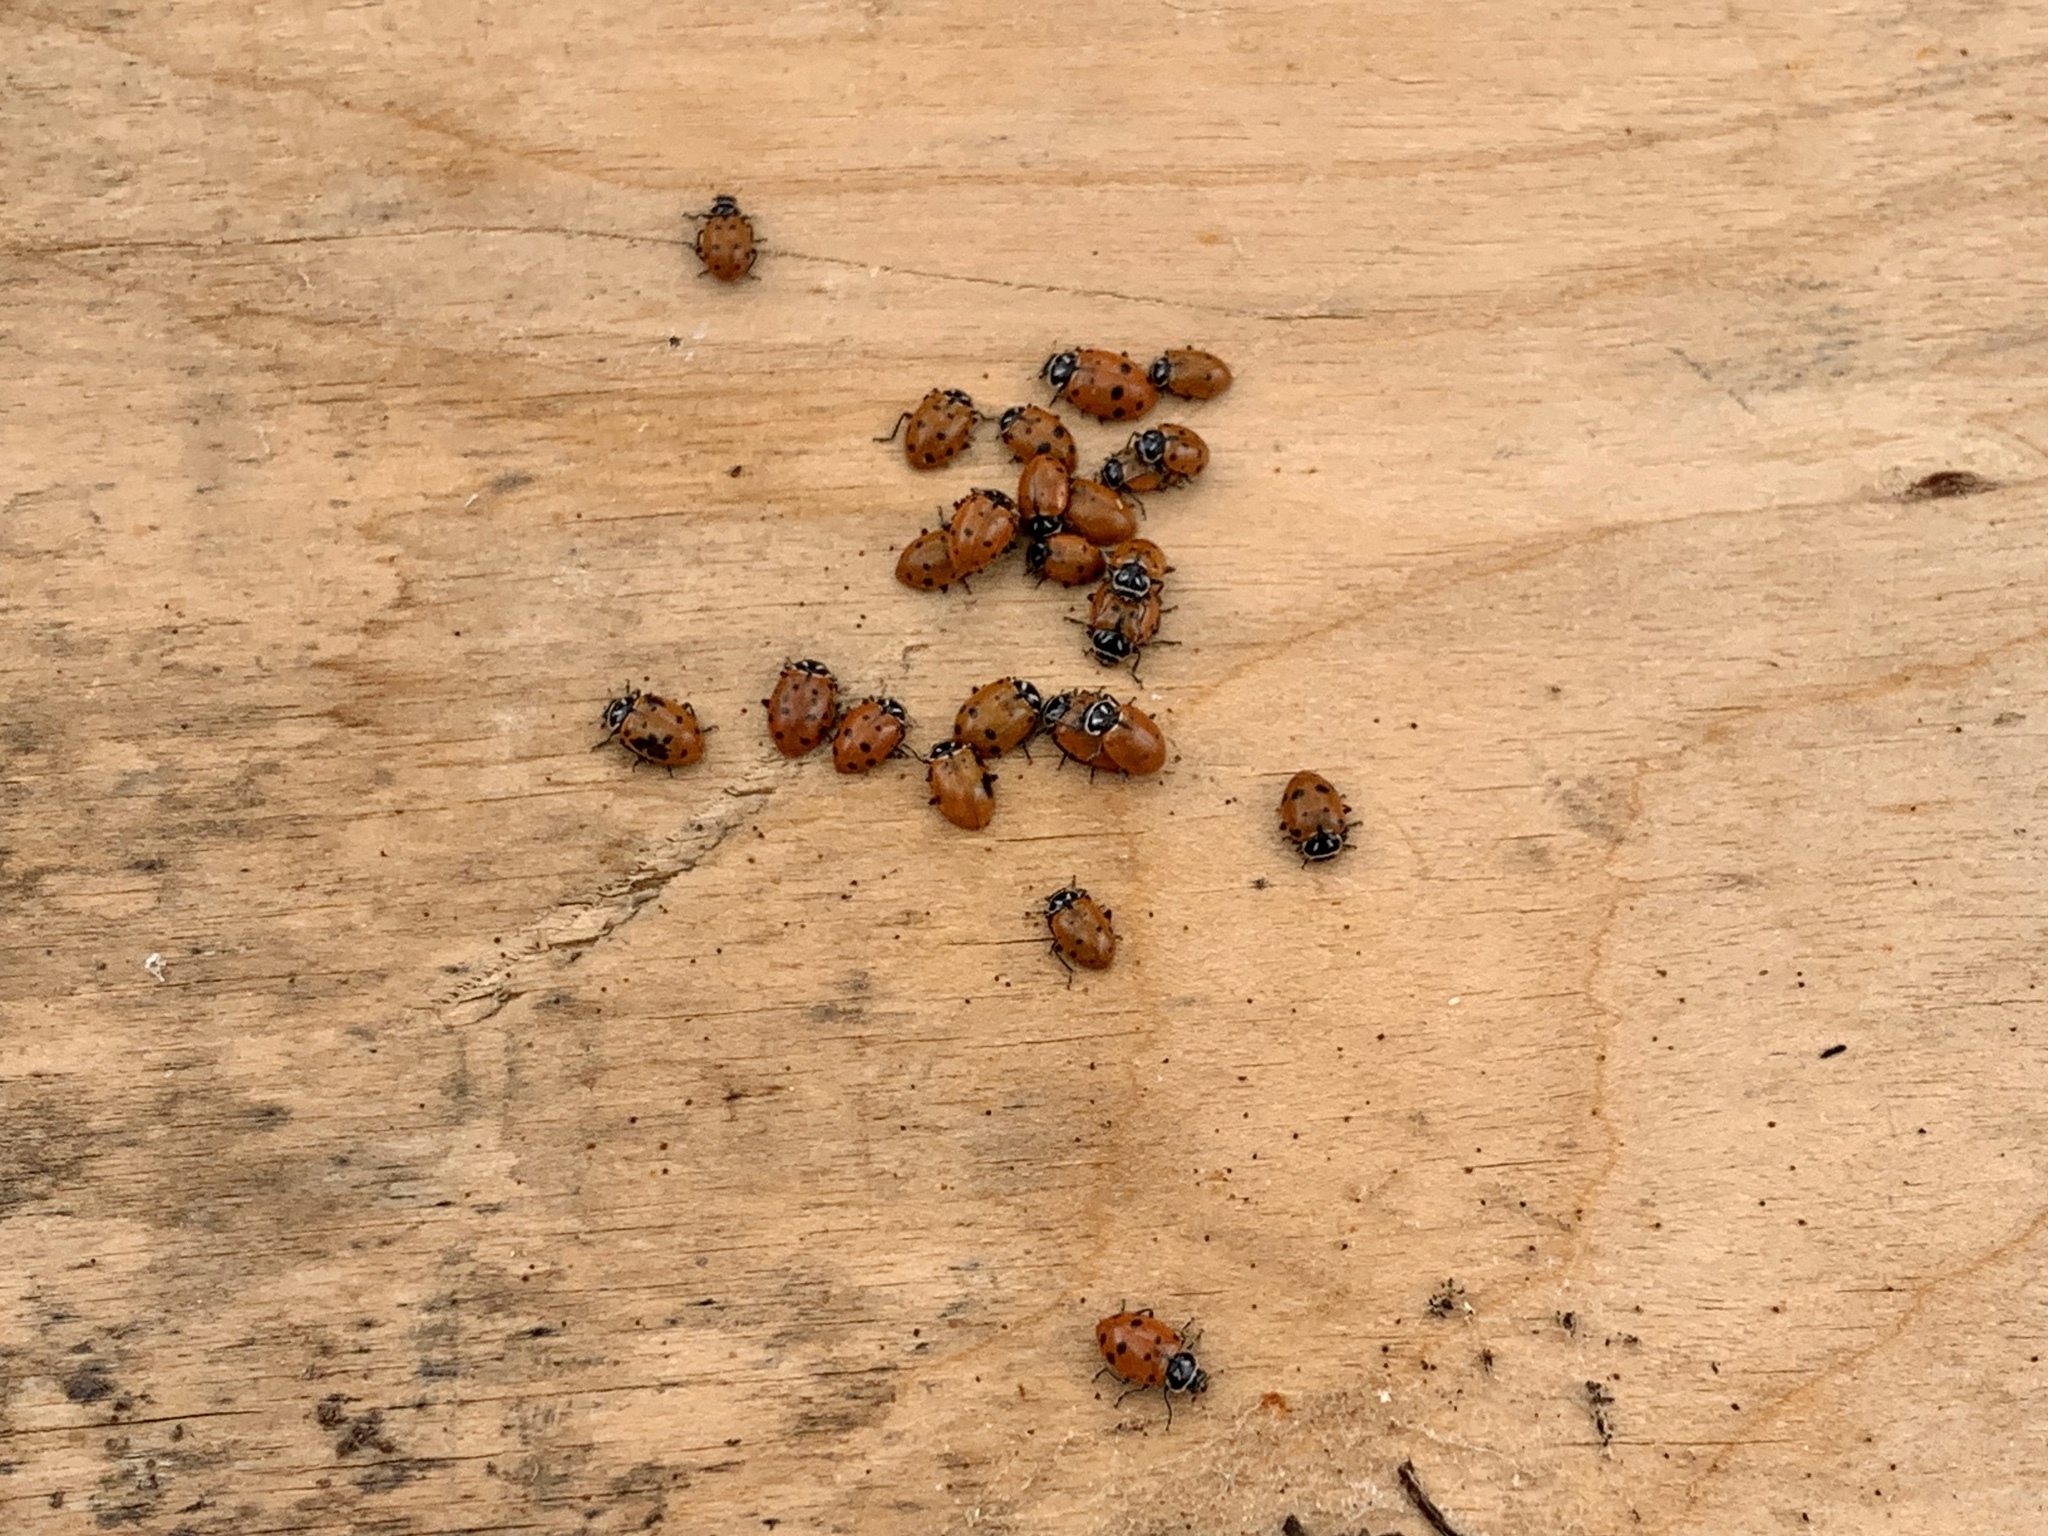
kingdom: Animalia
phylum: Arthropoda
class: Insecta
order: Coleoptera
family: Coccinellidae
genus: Hippodamia
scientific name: Hippodamia convergens
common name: Convergent lady beetle
